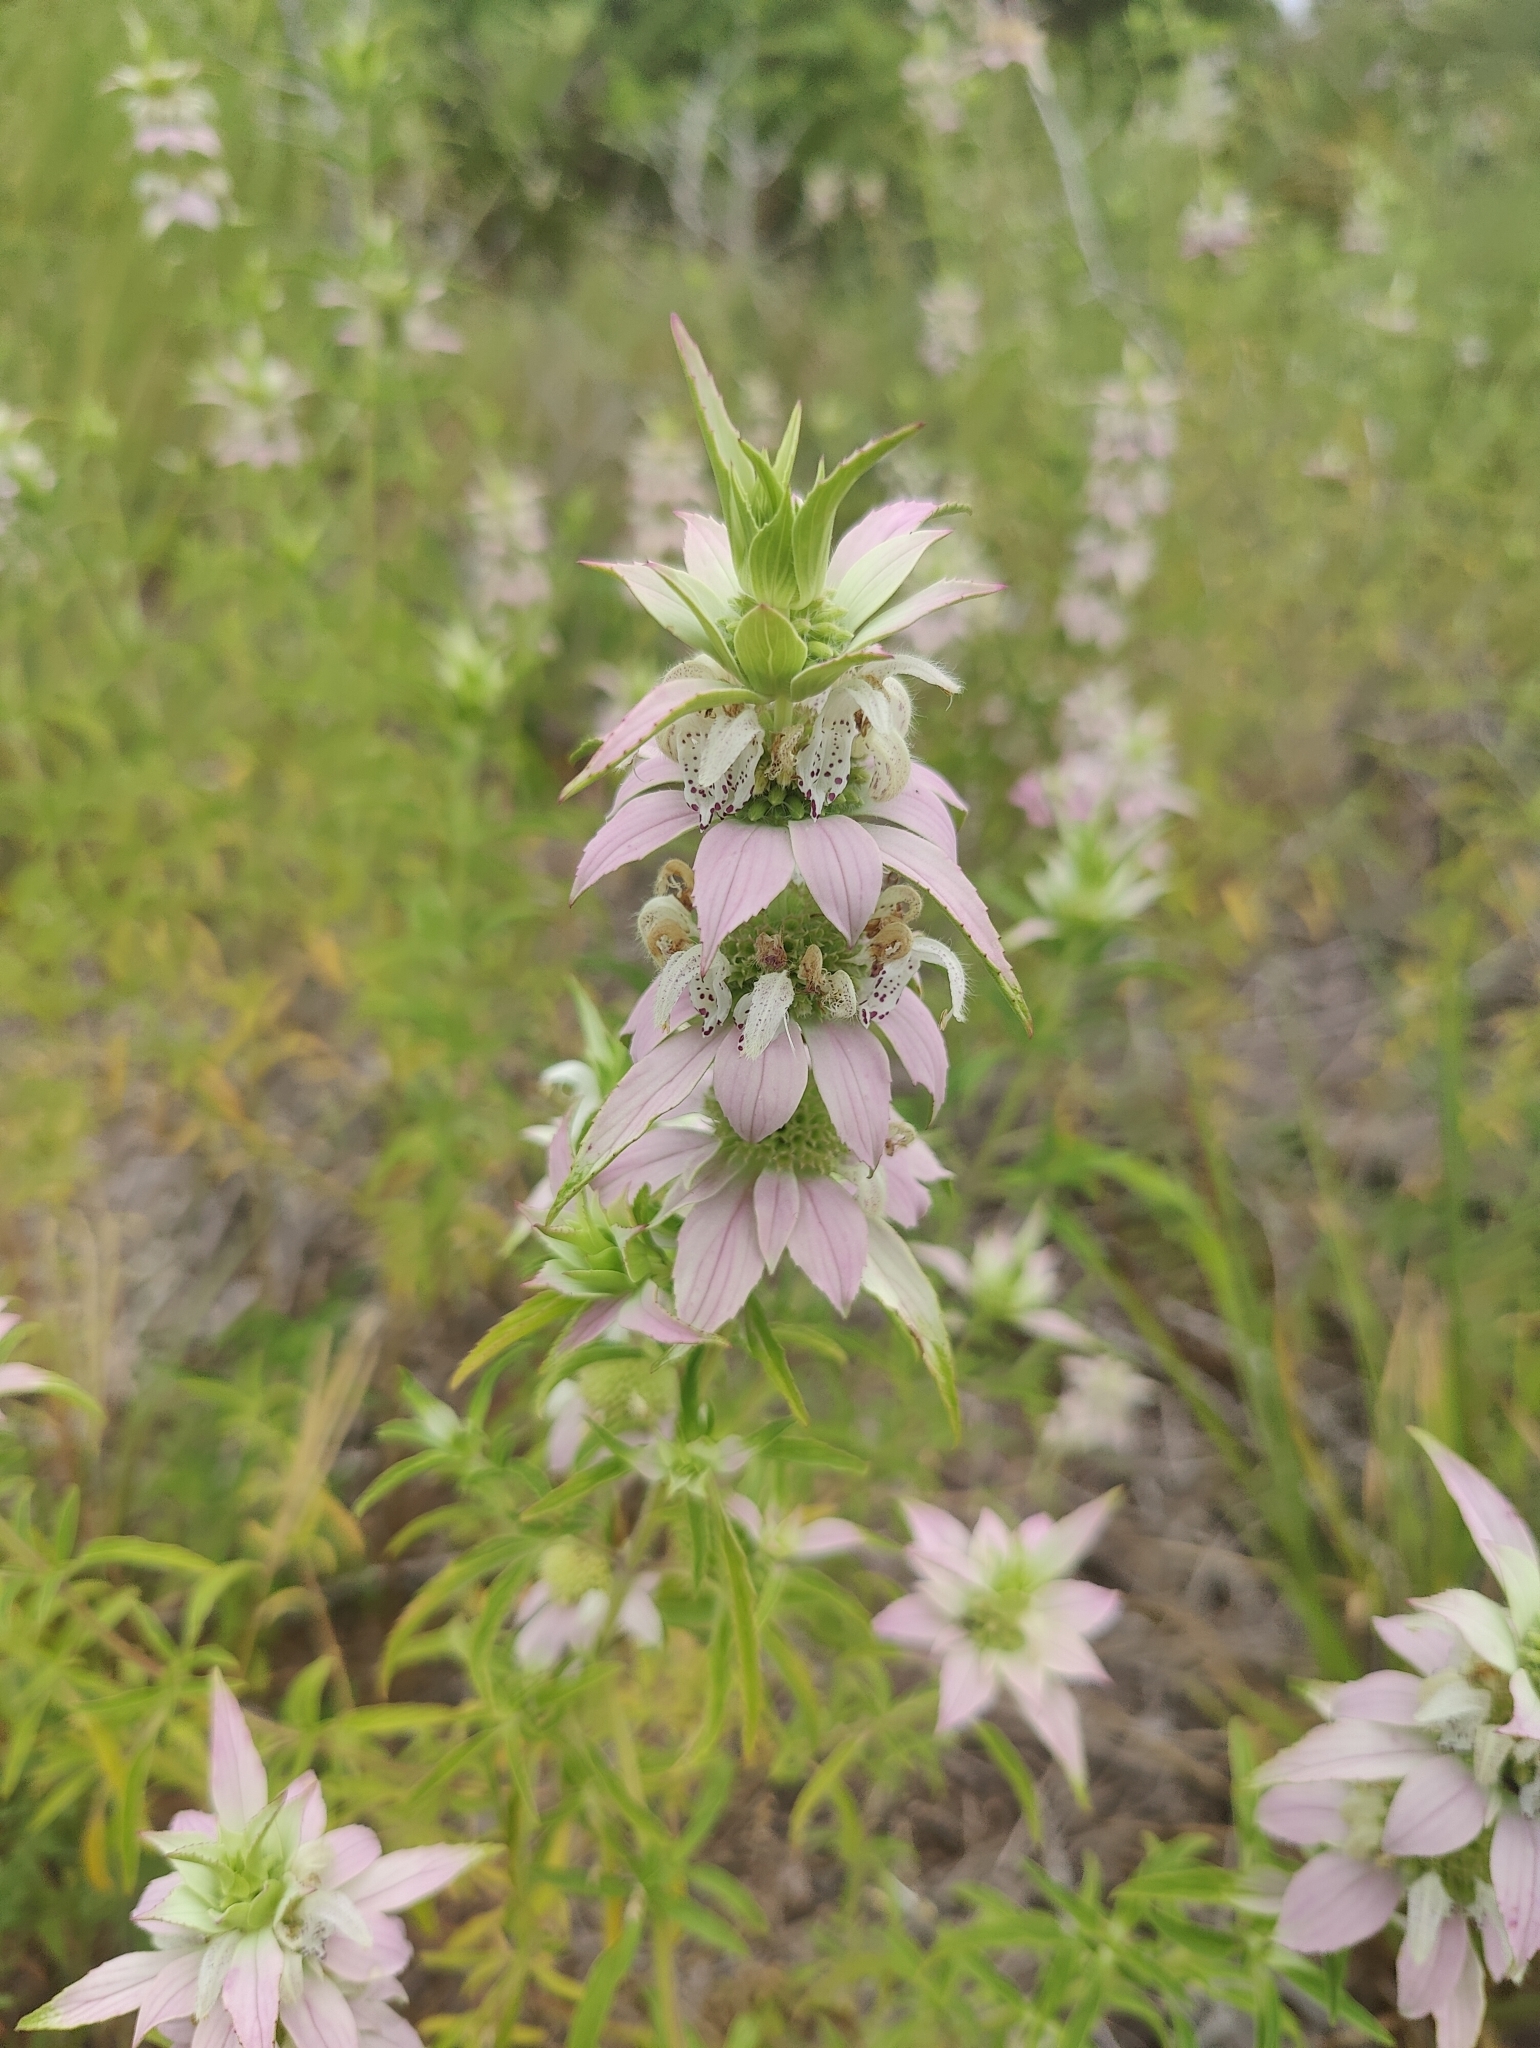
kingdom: Plantae
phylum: Tracheophyta
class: Magnoliopsida
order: Lamiales
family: Lamiaceae
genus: Monarda
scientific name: Monarda punctata
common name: Dotted monarda
